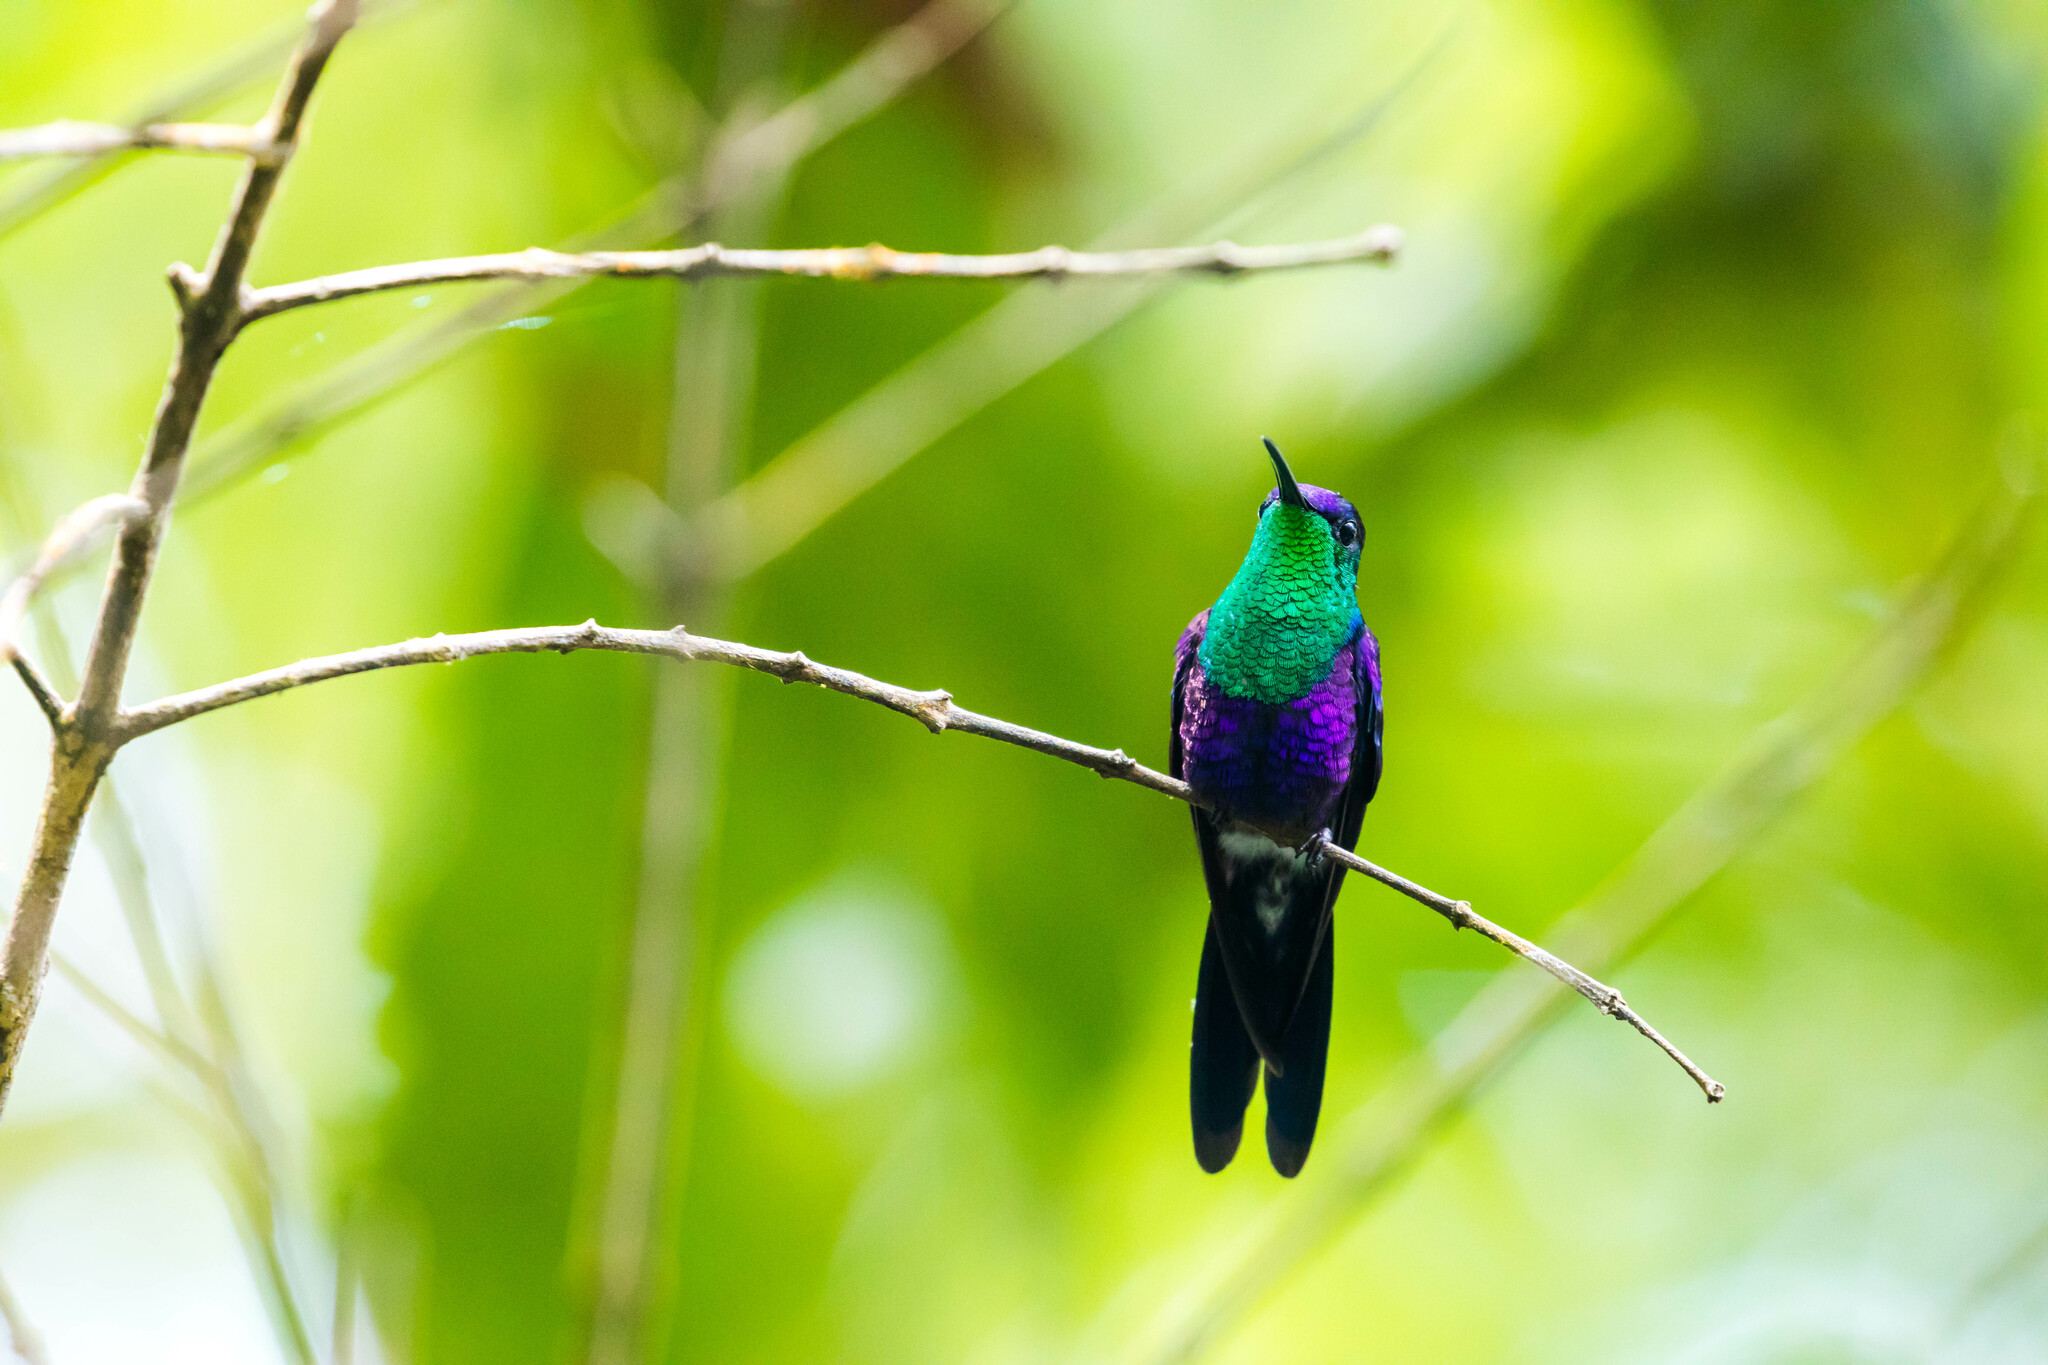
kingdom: Animalia
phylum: Chordata
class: Aves
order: Apodiformes
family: Trochilidae
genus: Thalurania
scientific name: Thalurania colombica
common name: Crowned woodnymph
